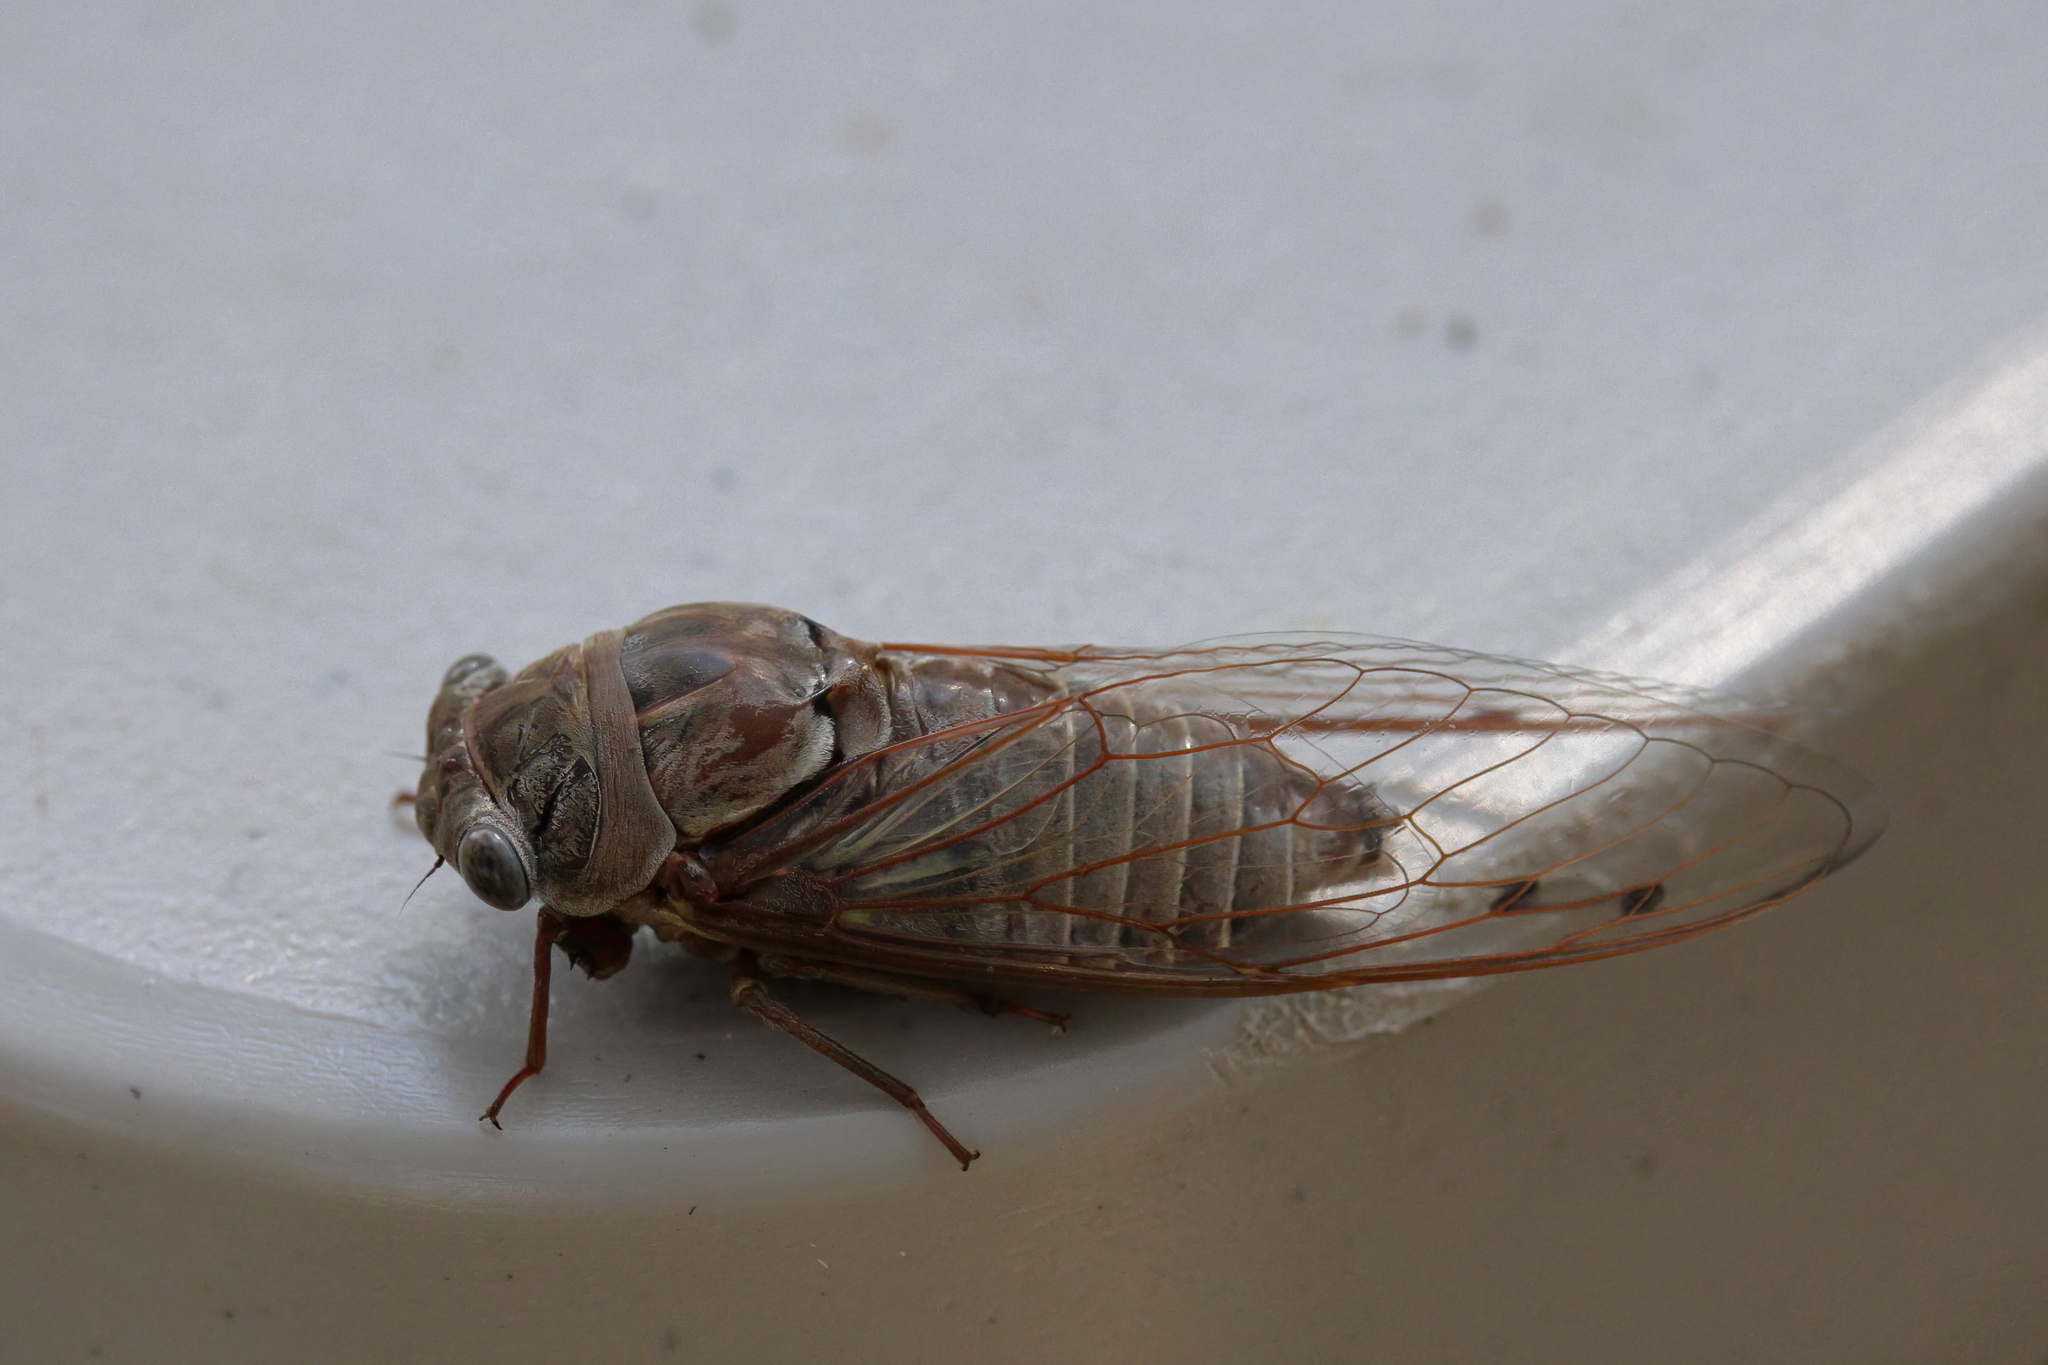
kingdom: Animalia
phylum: Arthropoda
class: Insecta
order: Hemiptera
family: Cicadidae
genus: Megatibicen
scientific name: Megatibicen resonans
